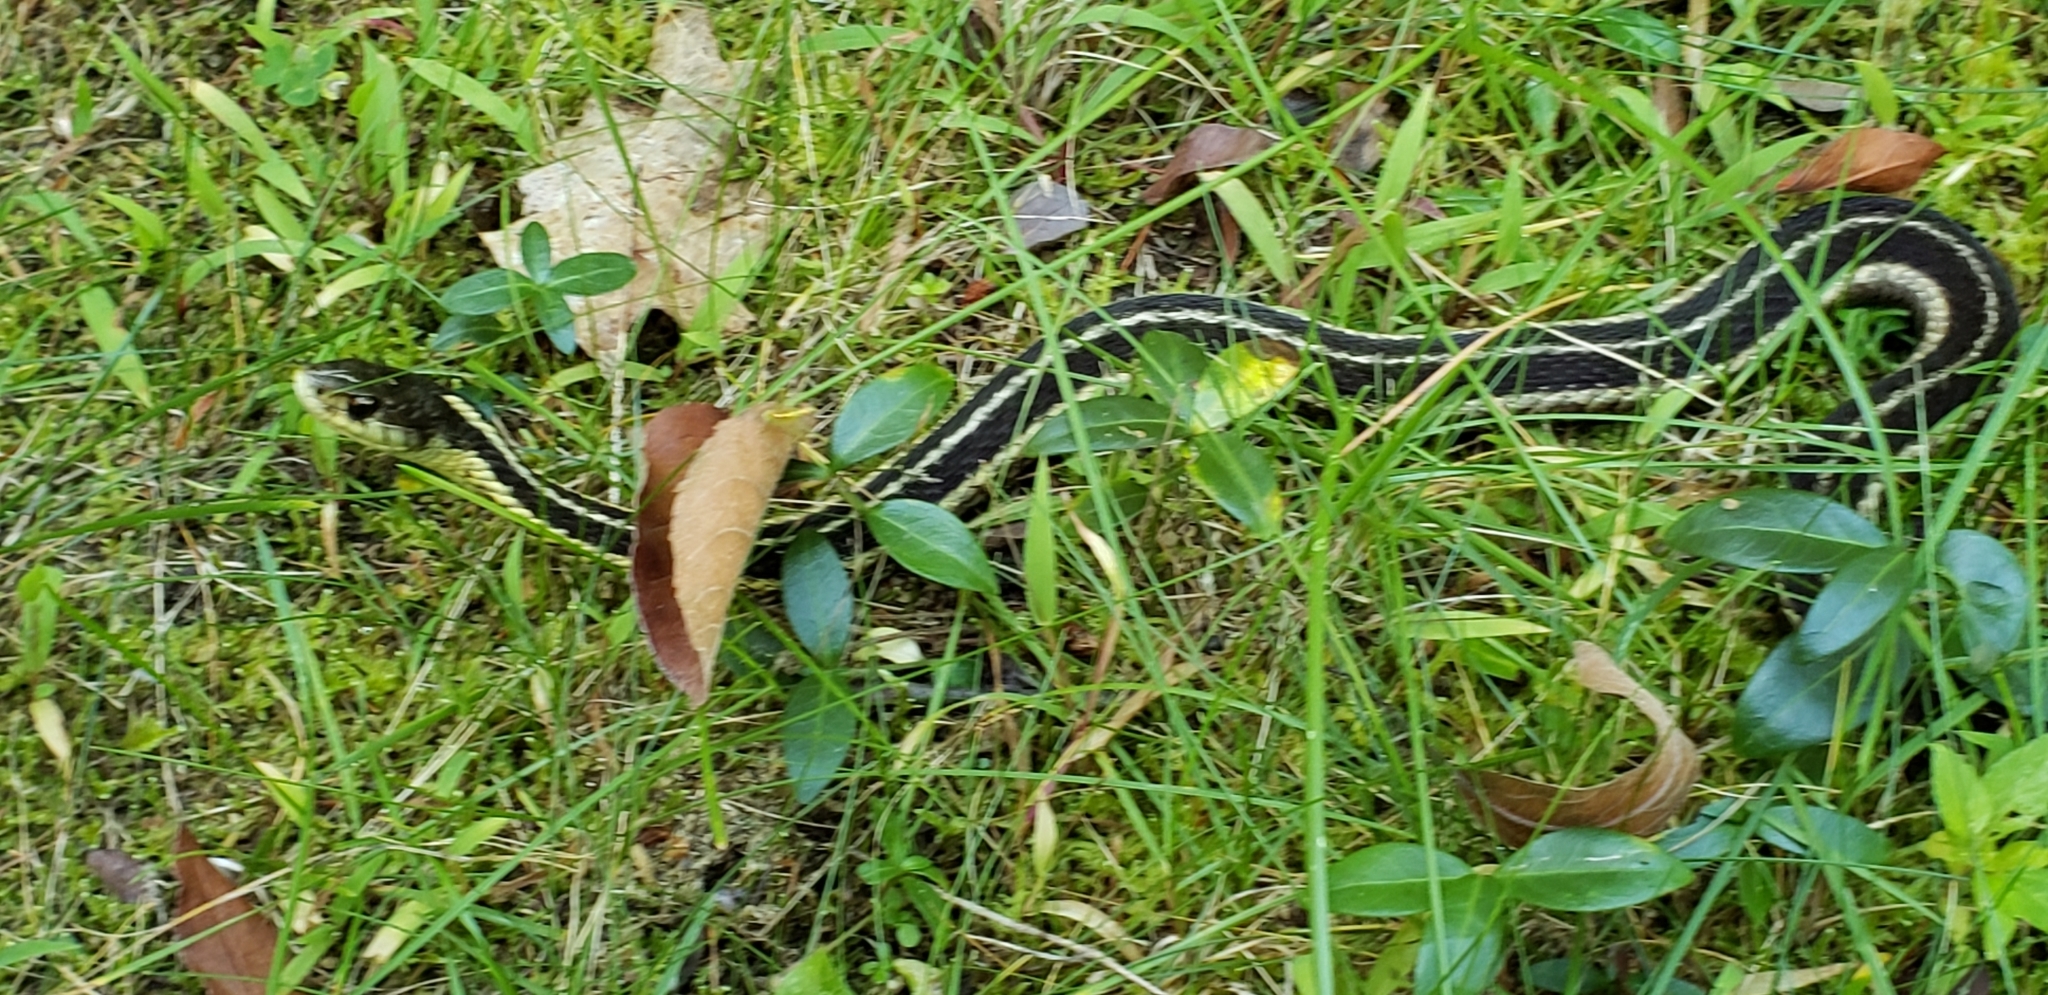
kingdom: Animalia
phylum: Chordata
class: Squamata
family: Colubridae
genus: Thamnophis
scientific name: Thamnophis sirtalis
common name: Common garter snake
